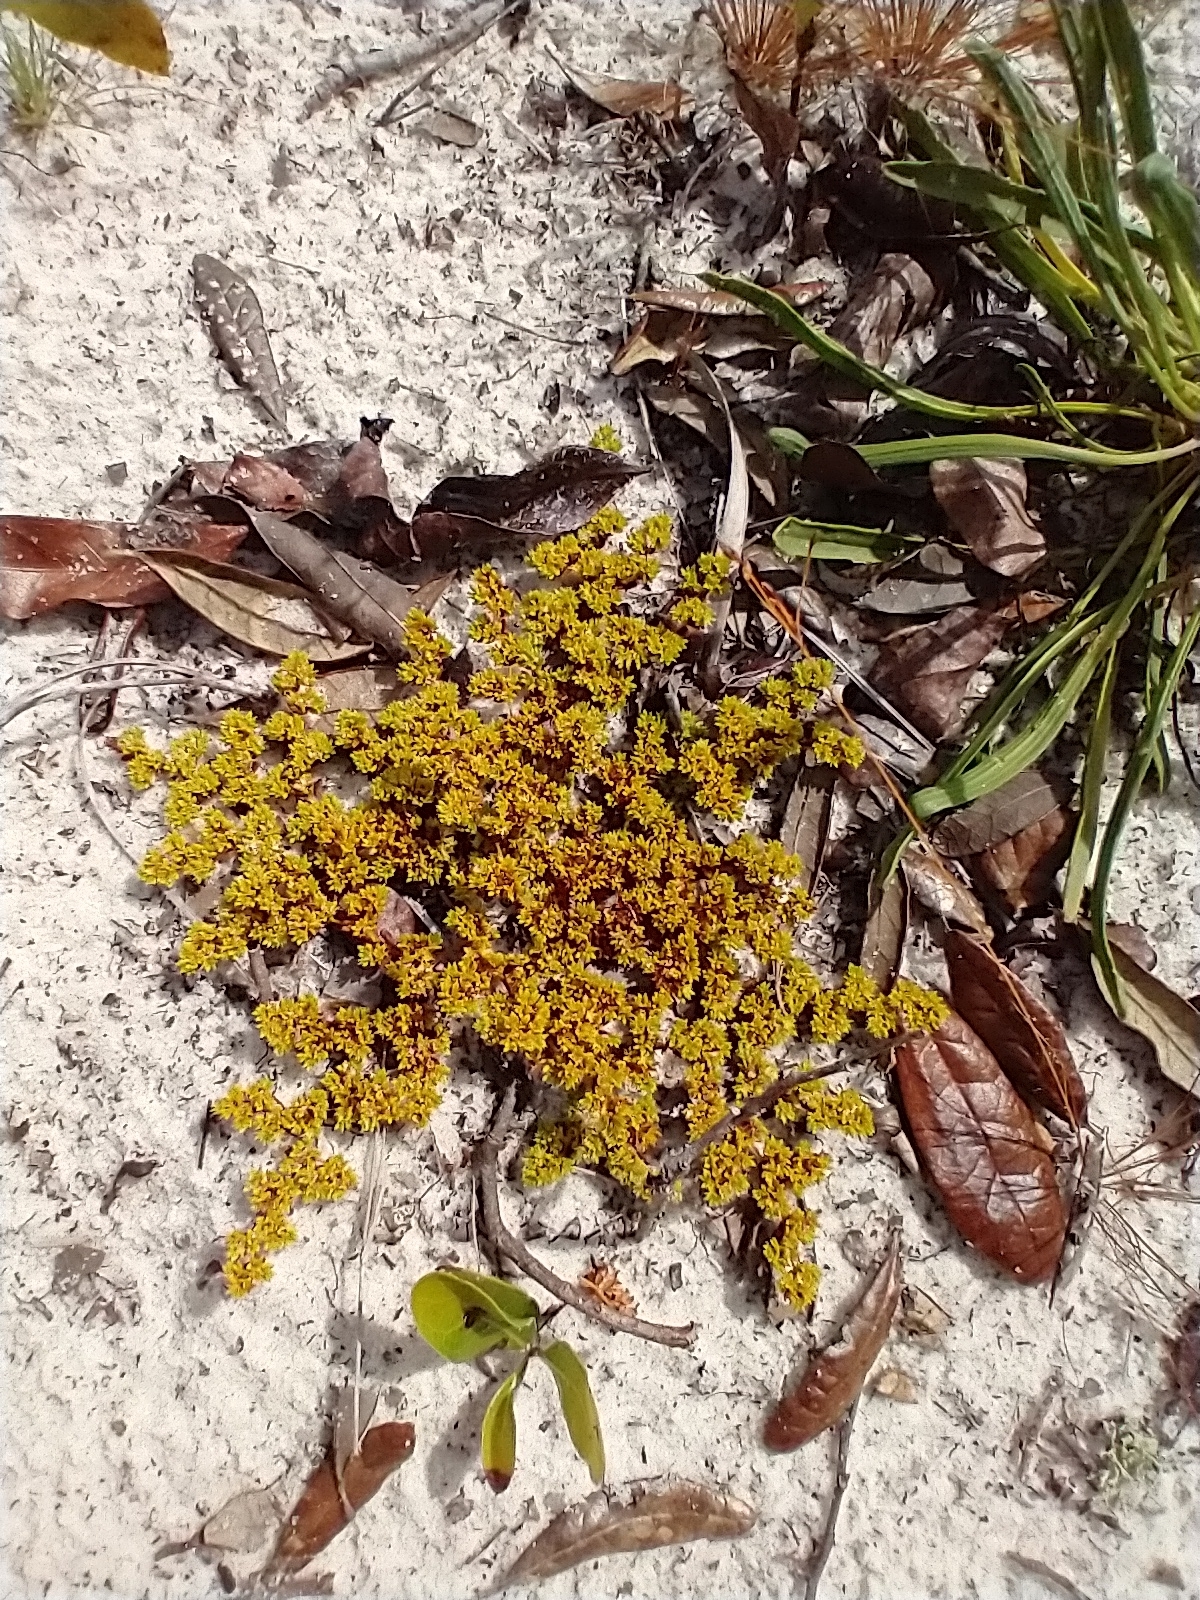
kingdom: Plantae
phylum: Tracheophyta
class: Magnoliopsida
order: Caryophyllales
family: Caryophyllaceae
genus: Paronychia
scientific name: Paronychia herniarioides
